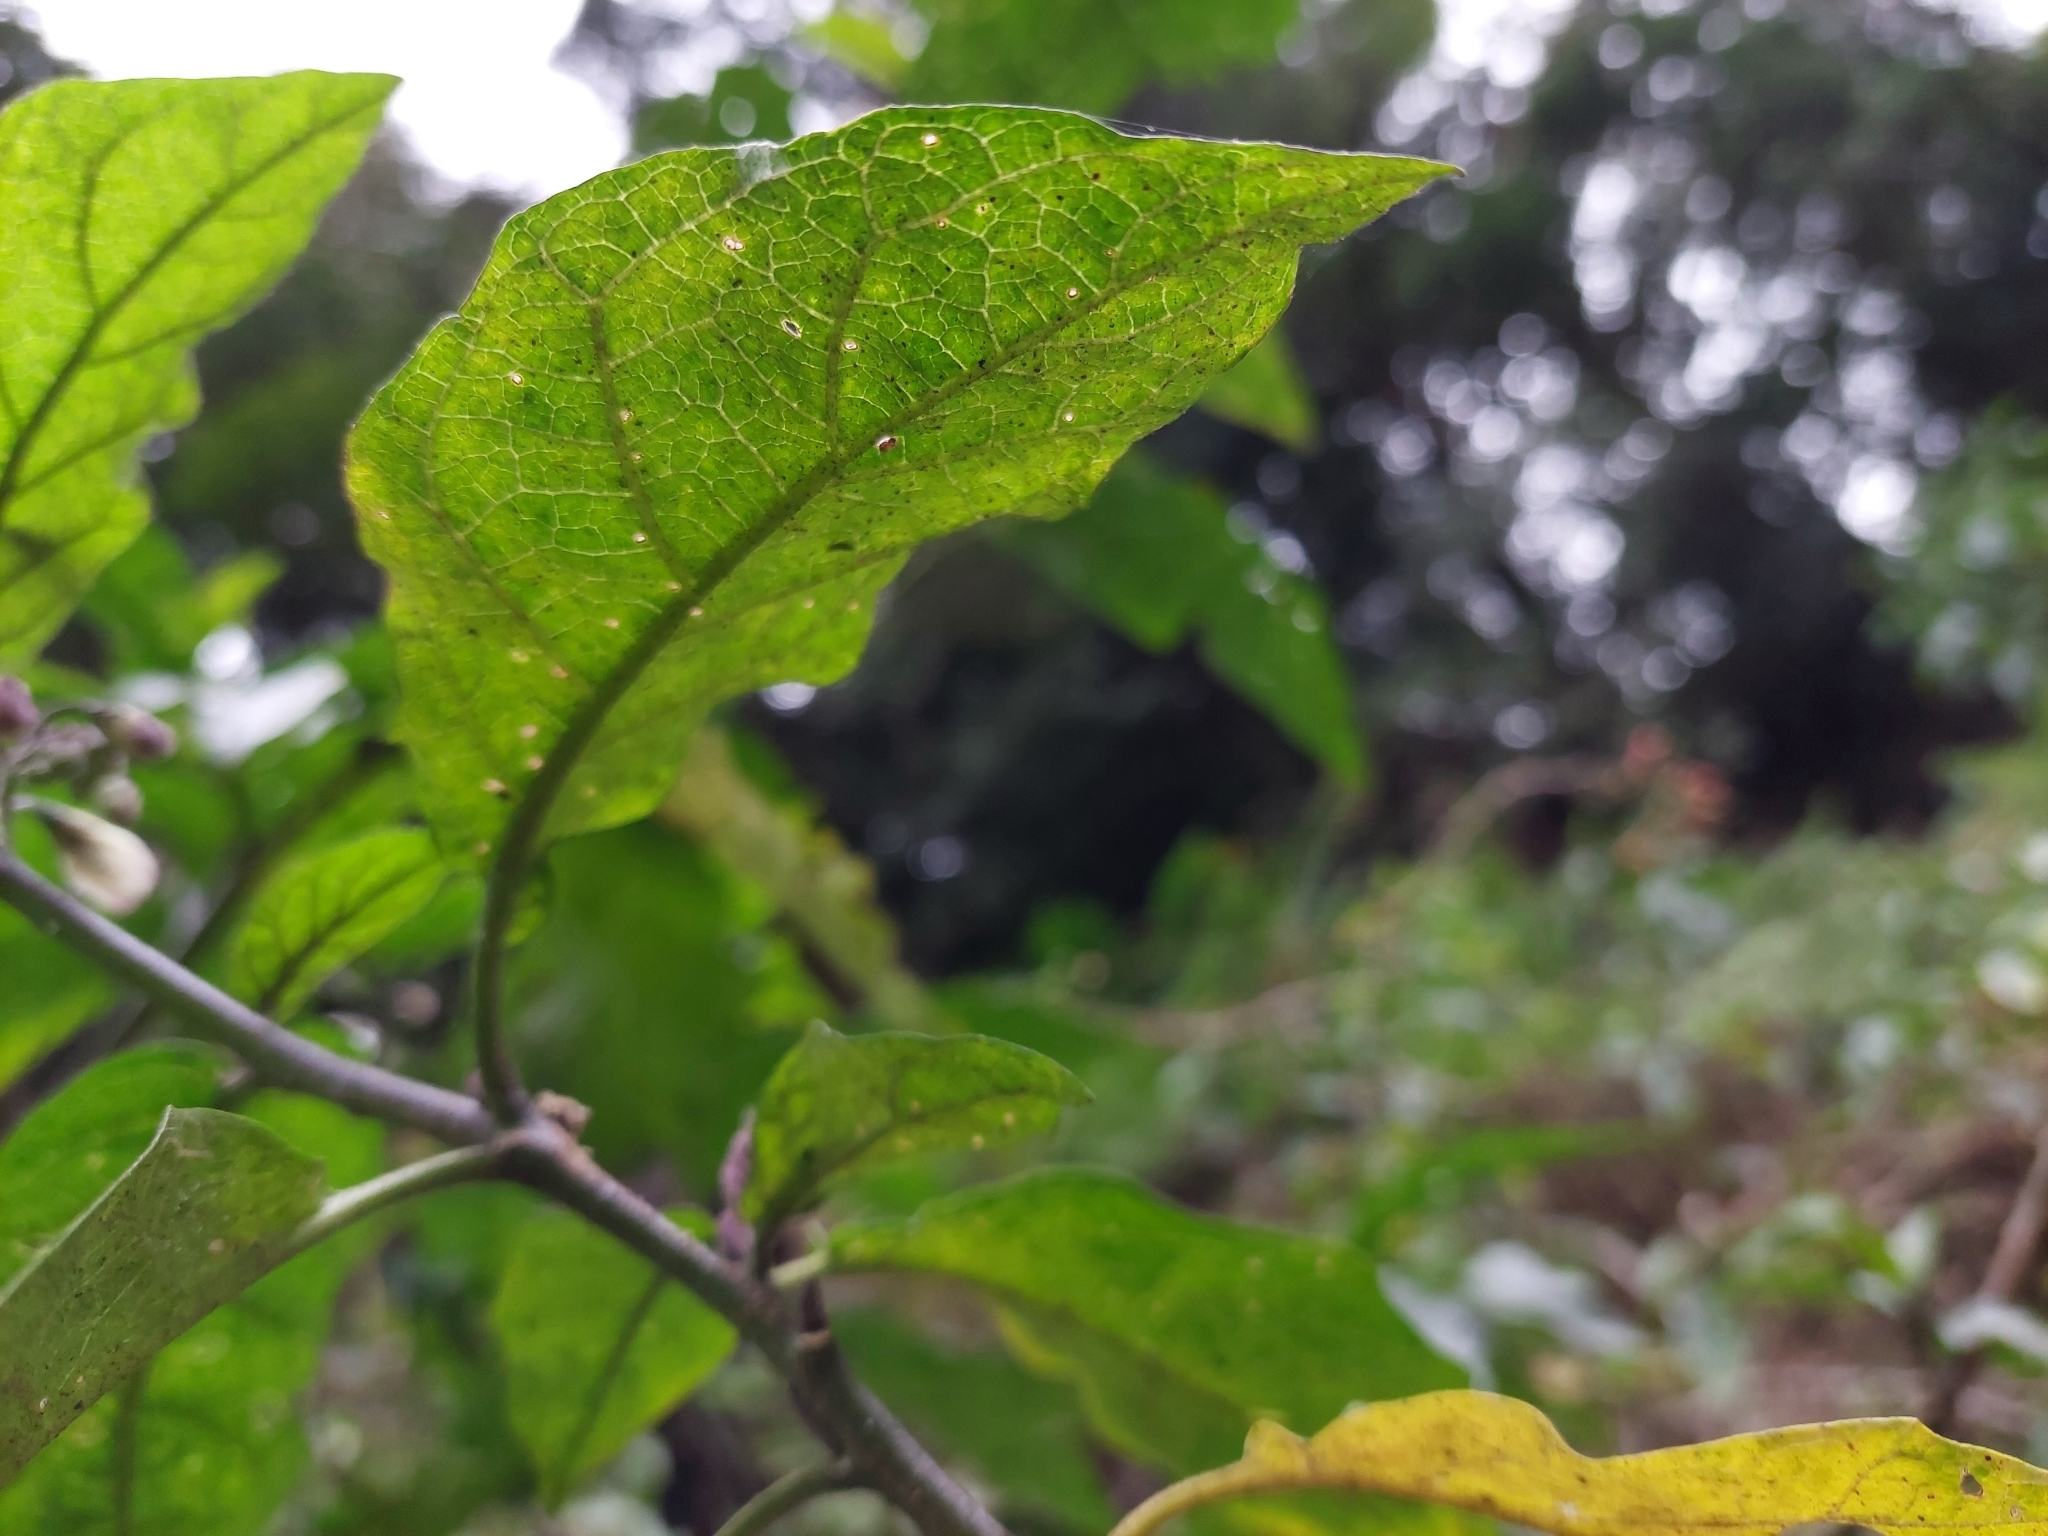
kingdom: Plantae
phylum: Tracheophyta
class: Magnoliopsida
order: Solanales
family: Solanaceae
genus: Solanum
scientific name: Solanum peikuoense
